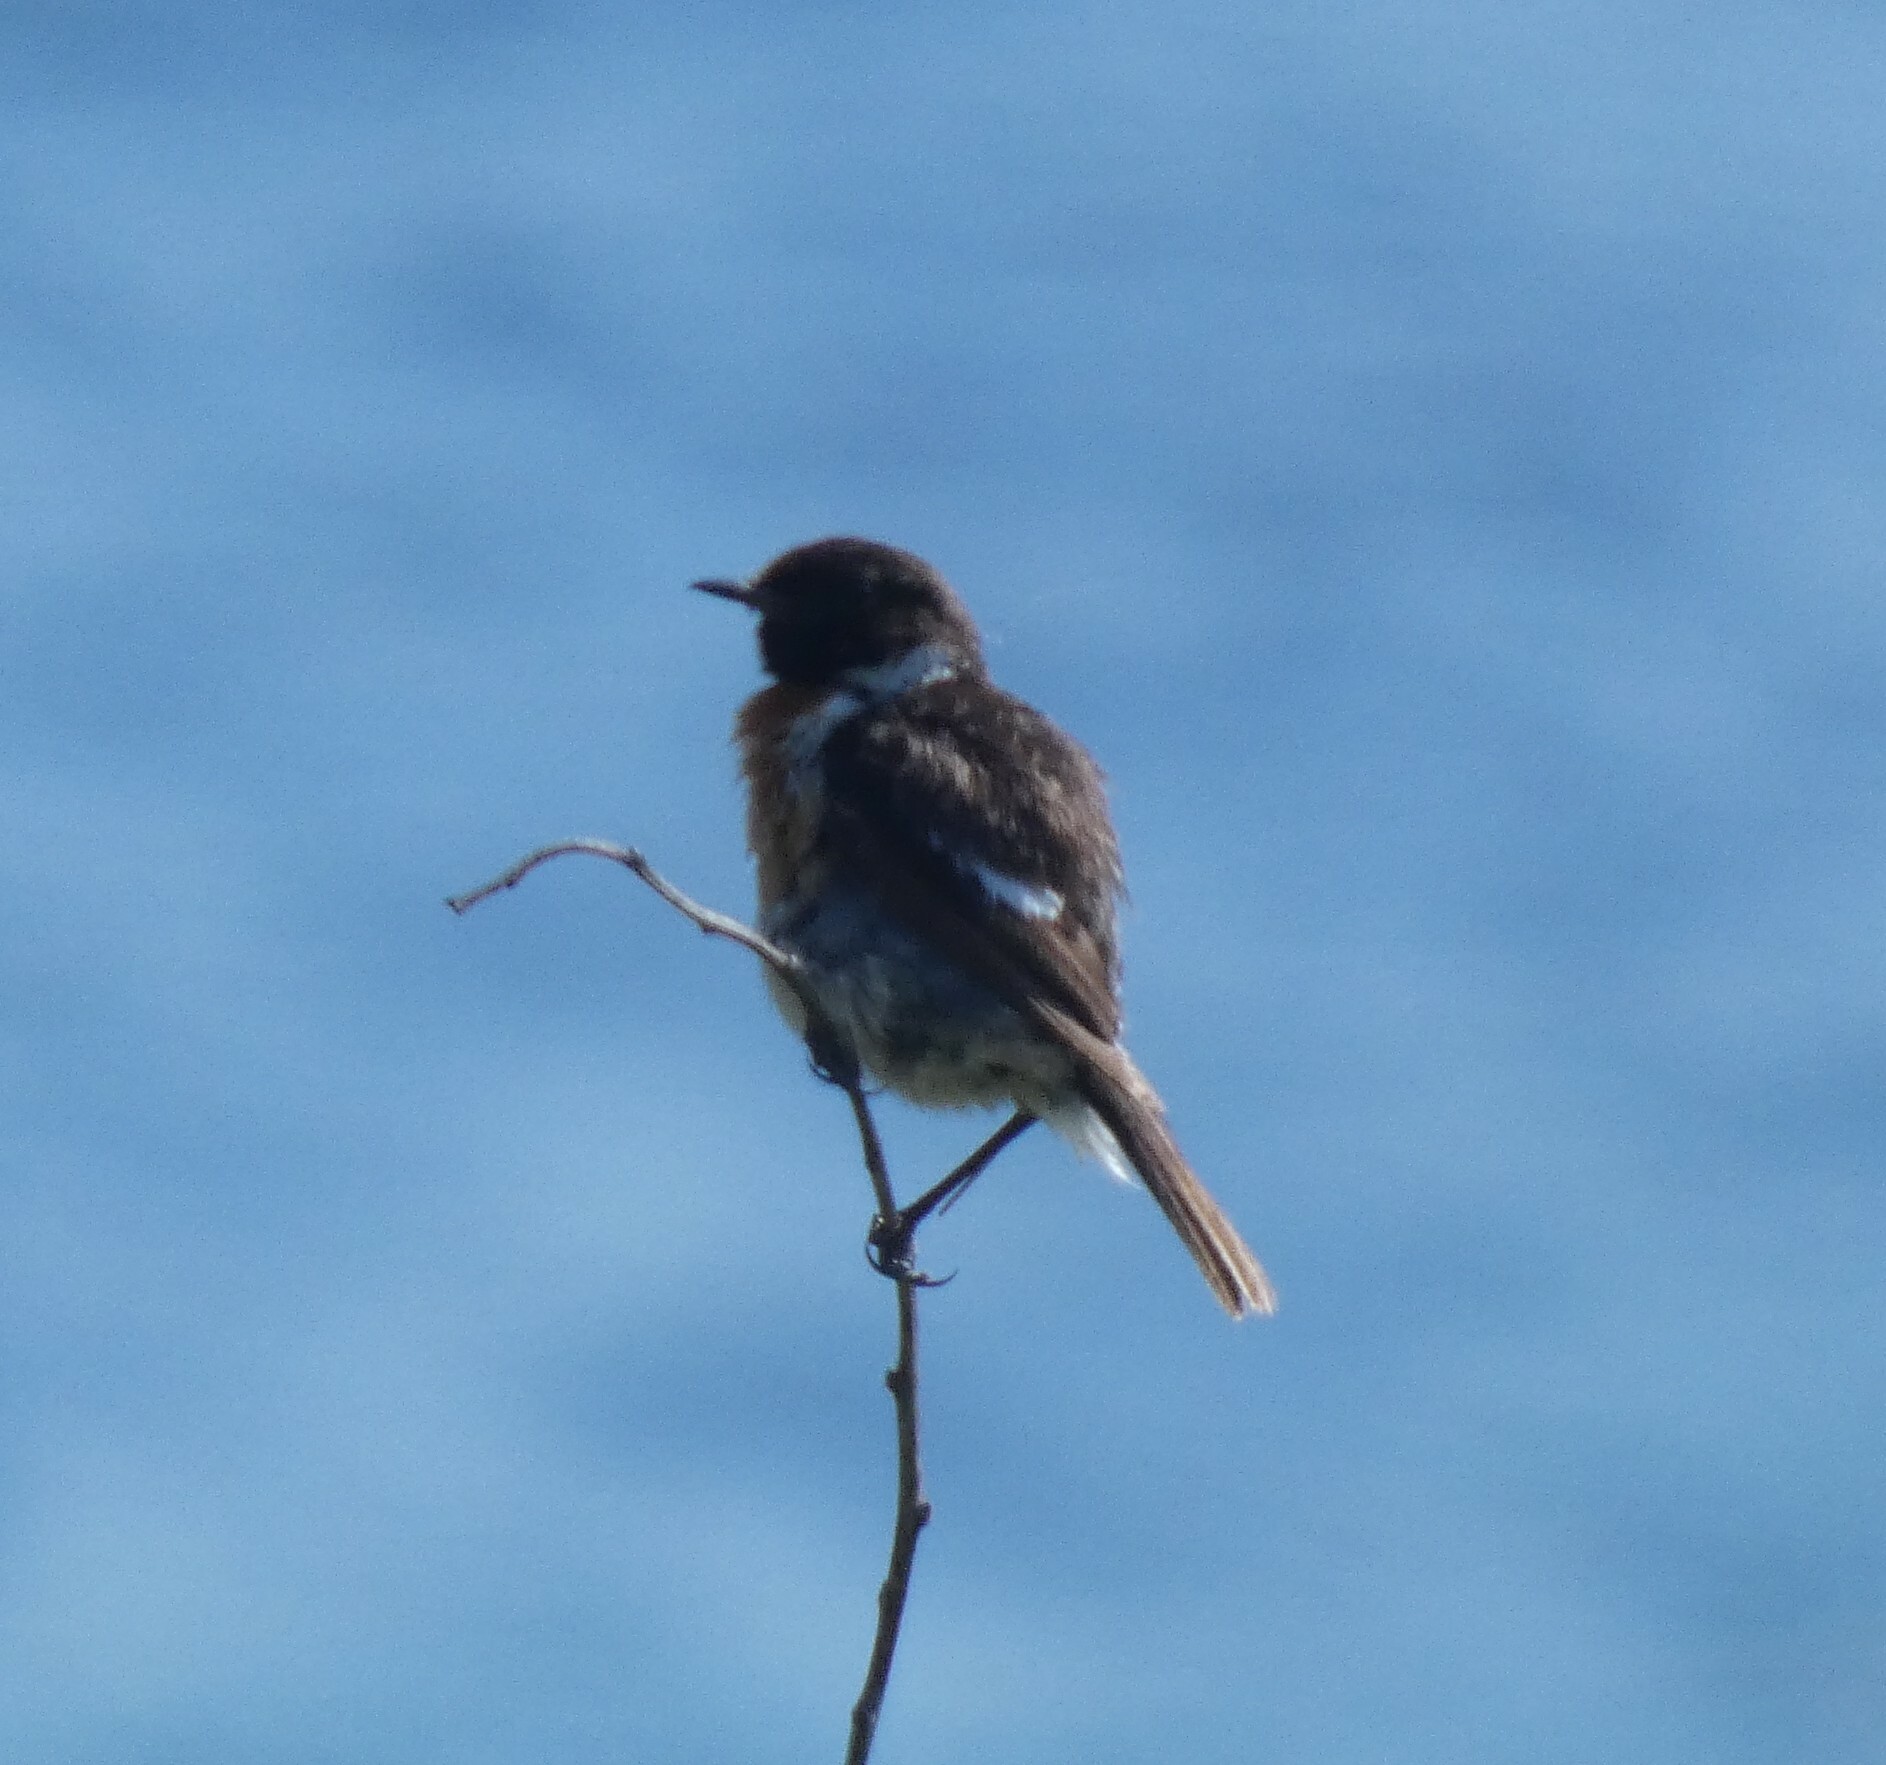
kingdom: Animalia
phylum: Chordata
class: Aves
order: Passeriformes
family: Muscicapidae
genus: Saxicola
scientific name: Saxicola rubicola
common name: European stonechat
